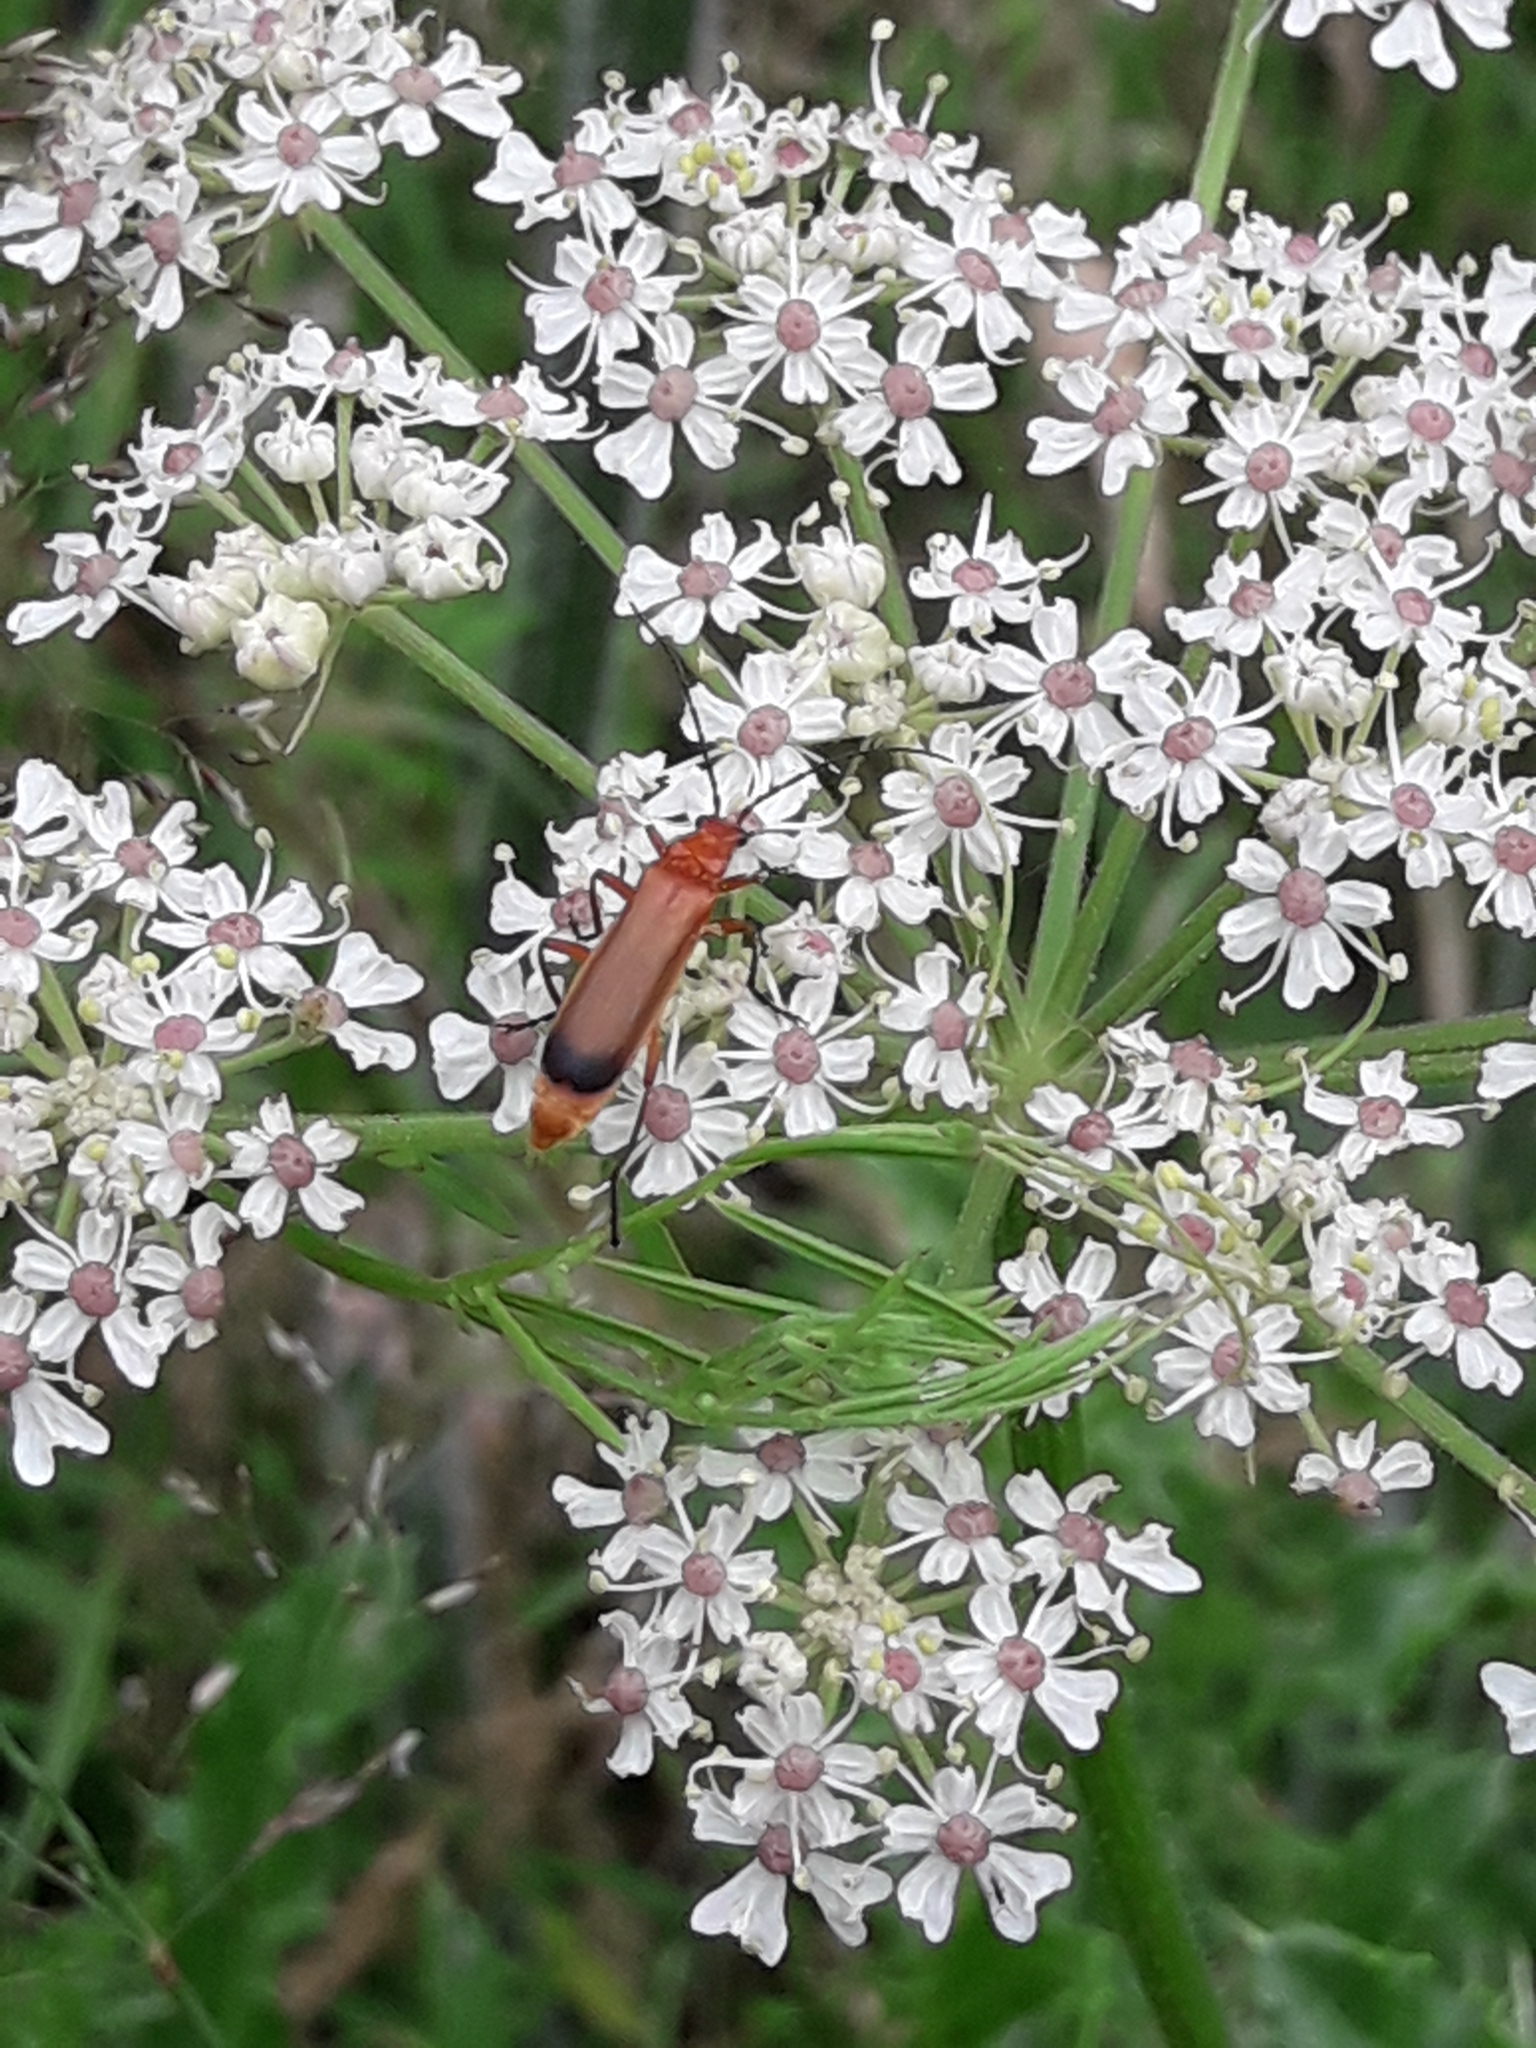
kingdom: Animalia
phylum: Arthropoda
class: Insecta
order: Coleoptera
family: Cantharidae
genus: Rhagonycha
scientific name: Rhagonycha fulva
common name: Common red soldier beetle
